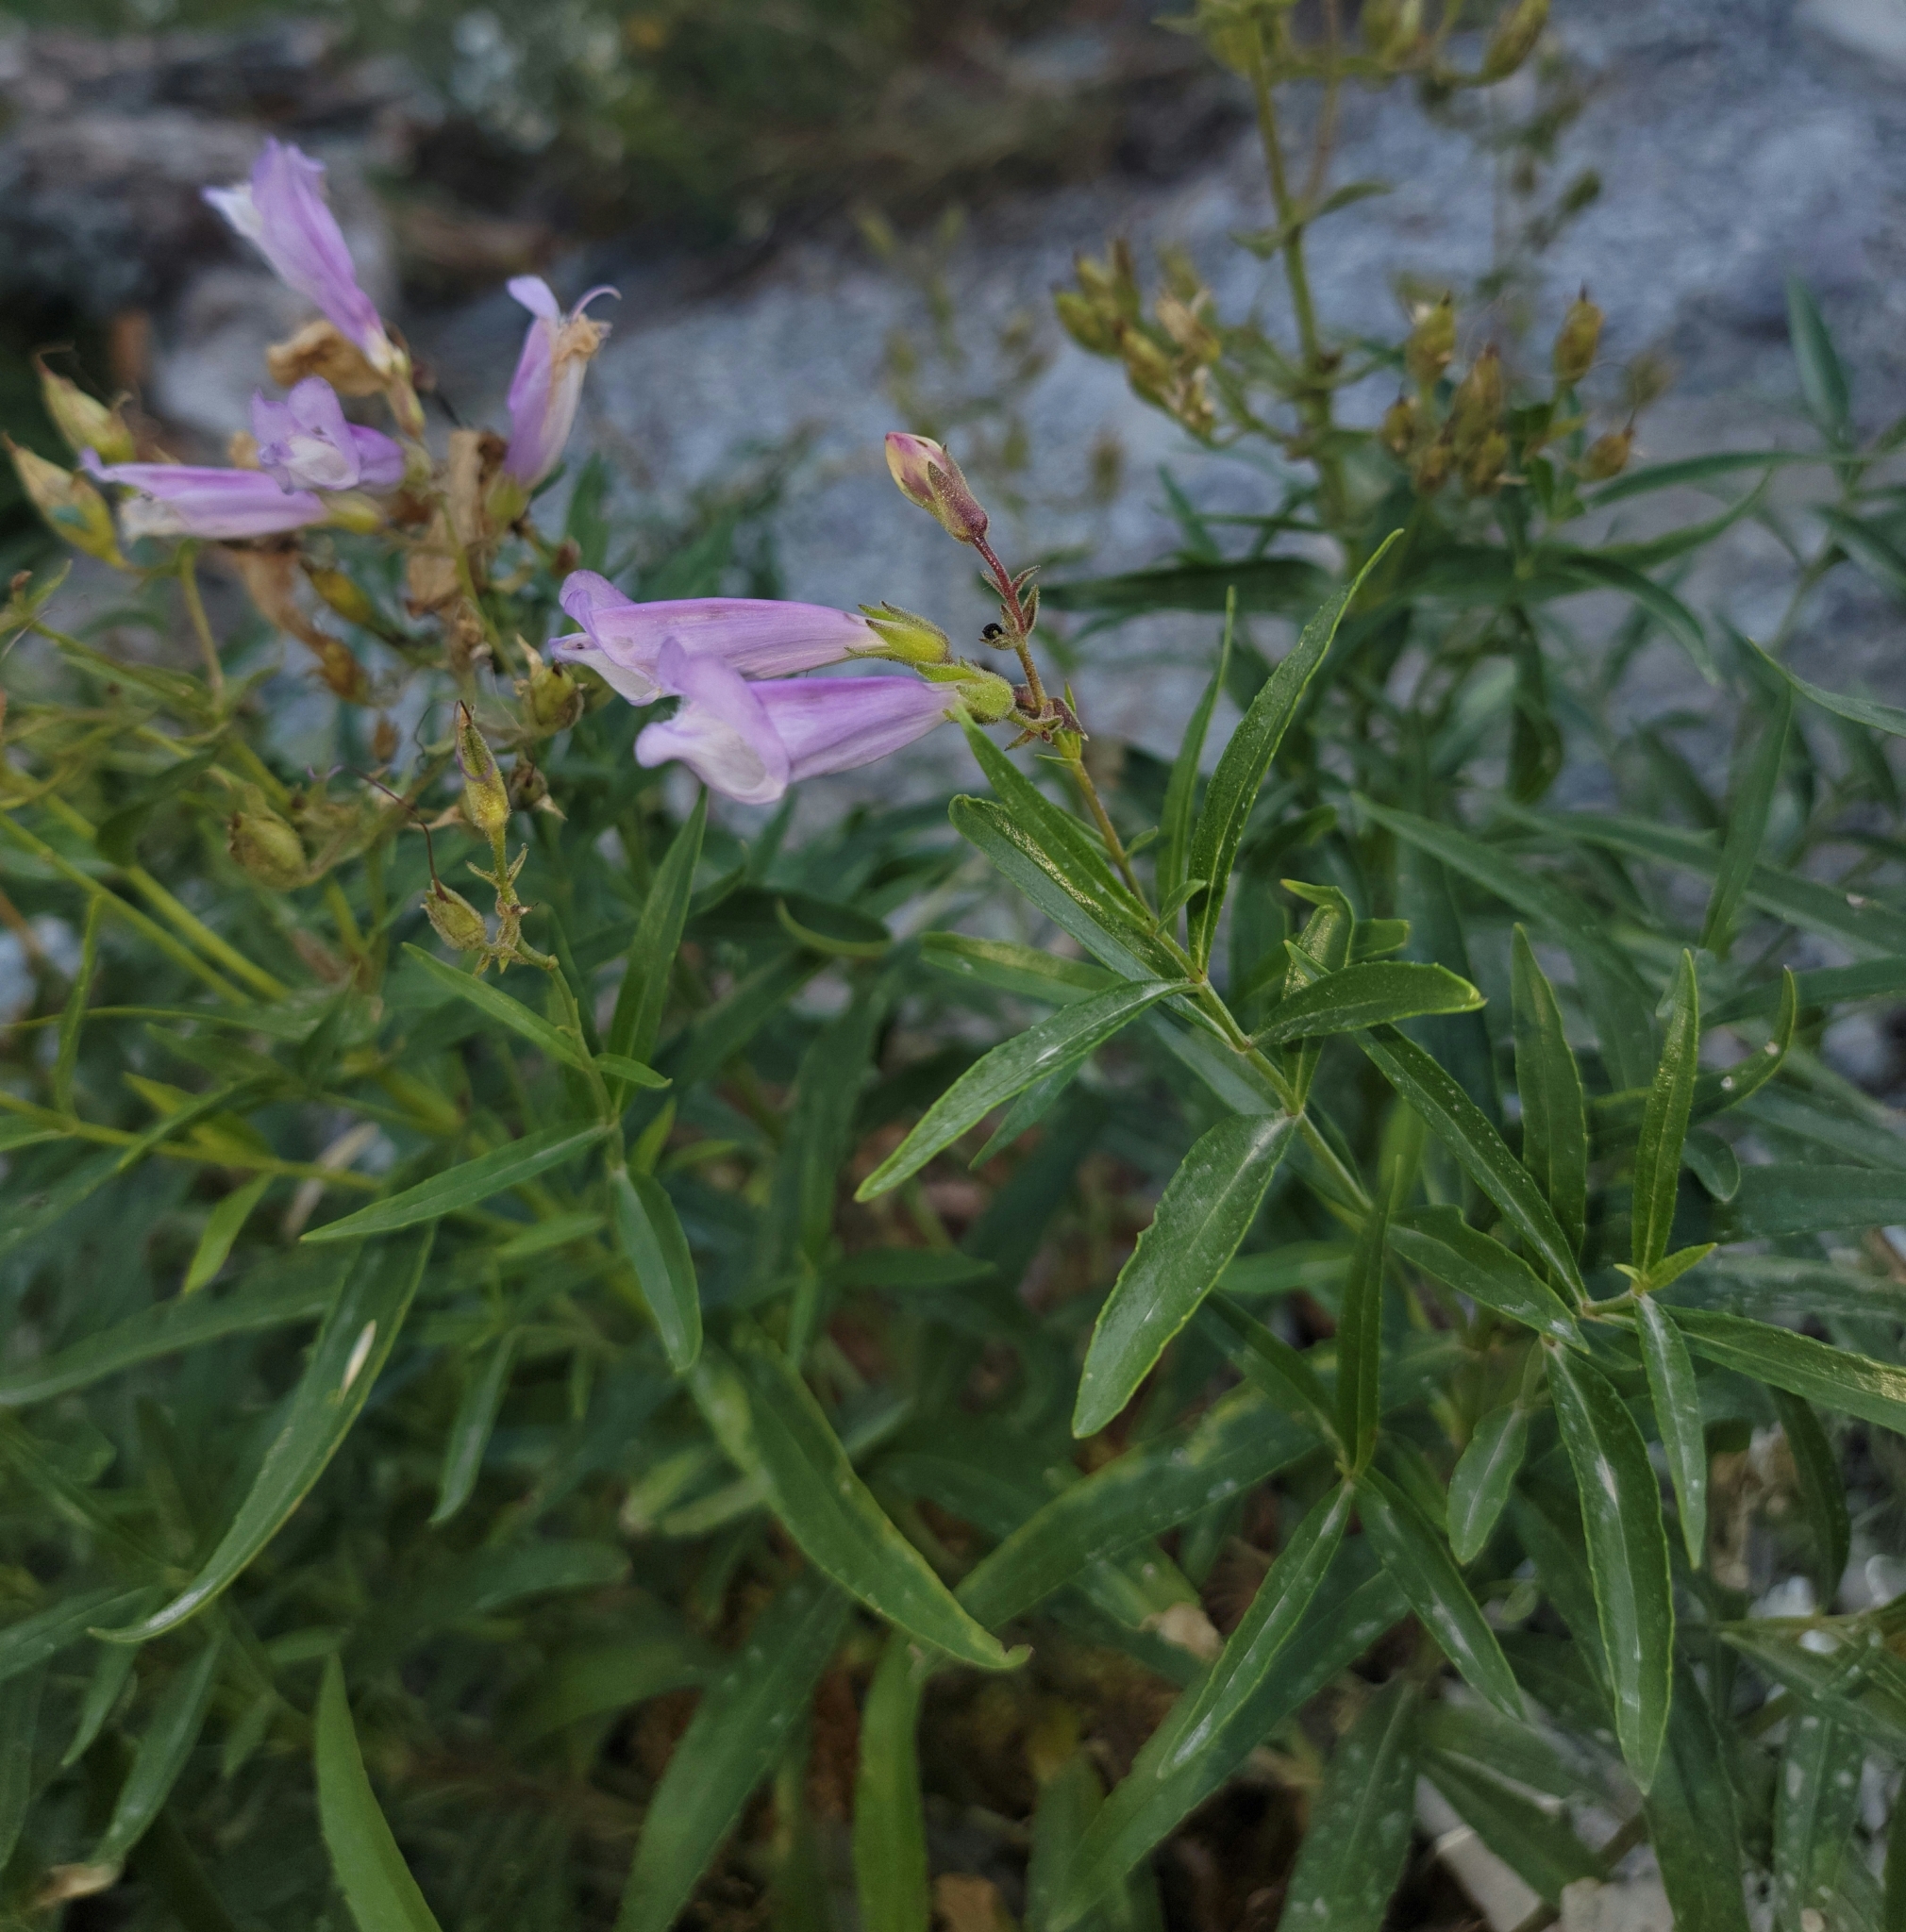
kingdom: Plantae
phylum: Tracheophyta
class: Magnoliopsida
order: Lamiales
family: Plantaginaceae
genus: Penstemon
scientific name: Penstemon lyalli
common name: Lyall's beardtongue
